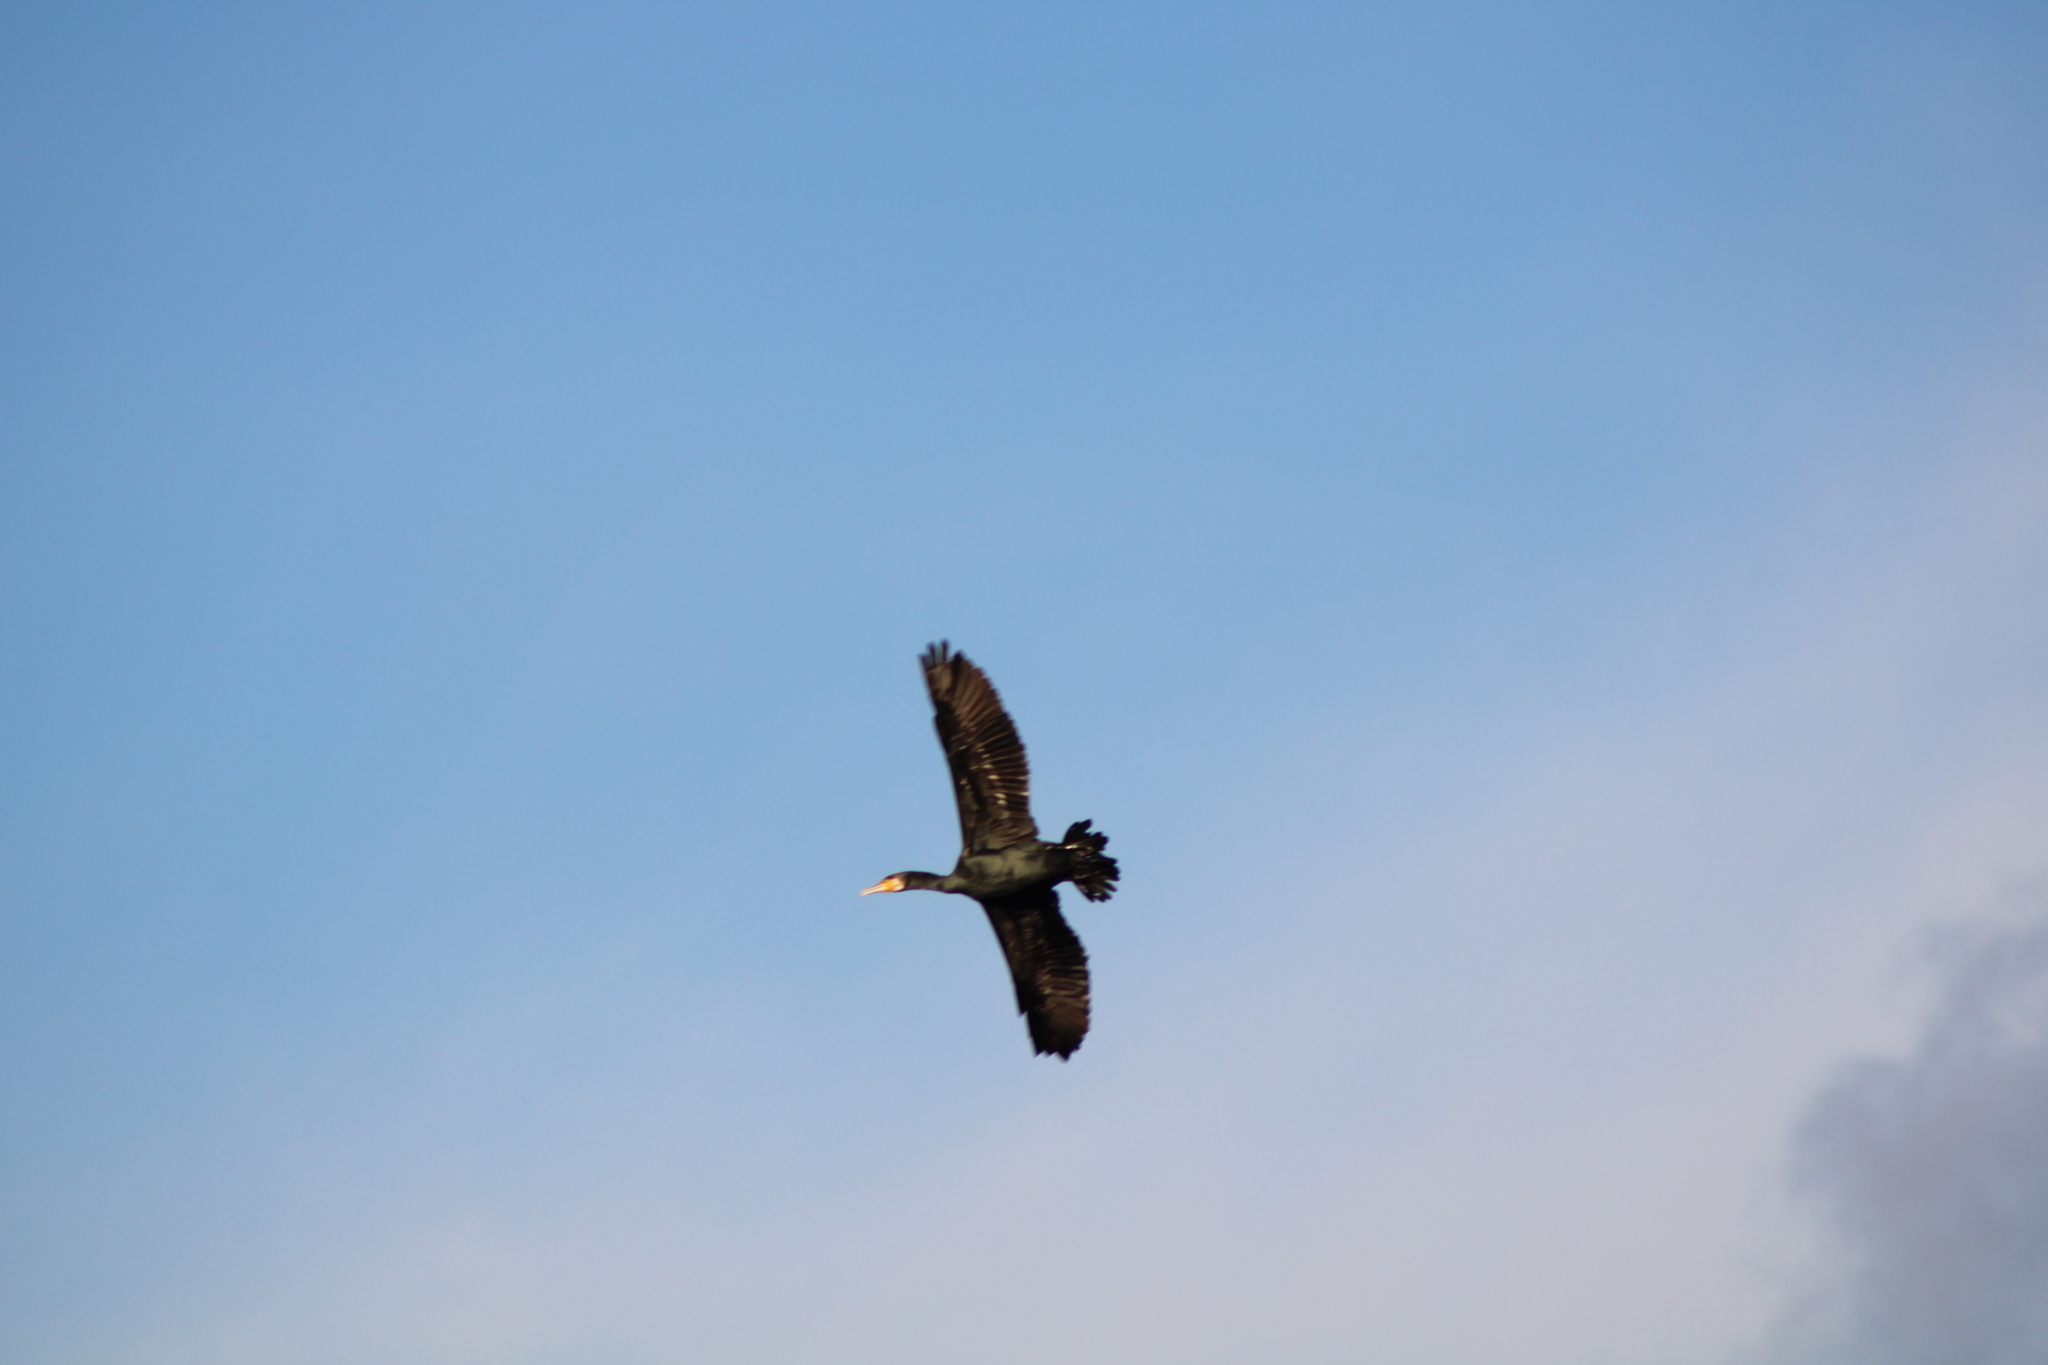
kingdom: Animalia
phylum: Chordata
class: Aves
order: Suliformes
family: Phalacrocoracidae
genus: Phalacrocorax
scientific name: Phalacrocorax carbo
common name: Great cormorant
